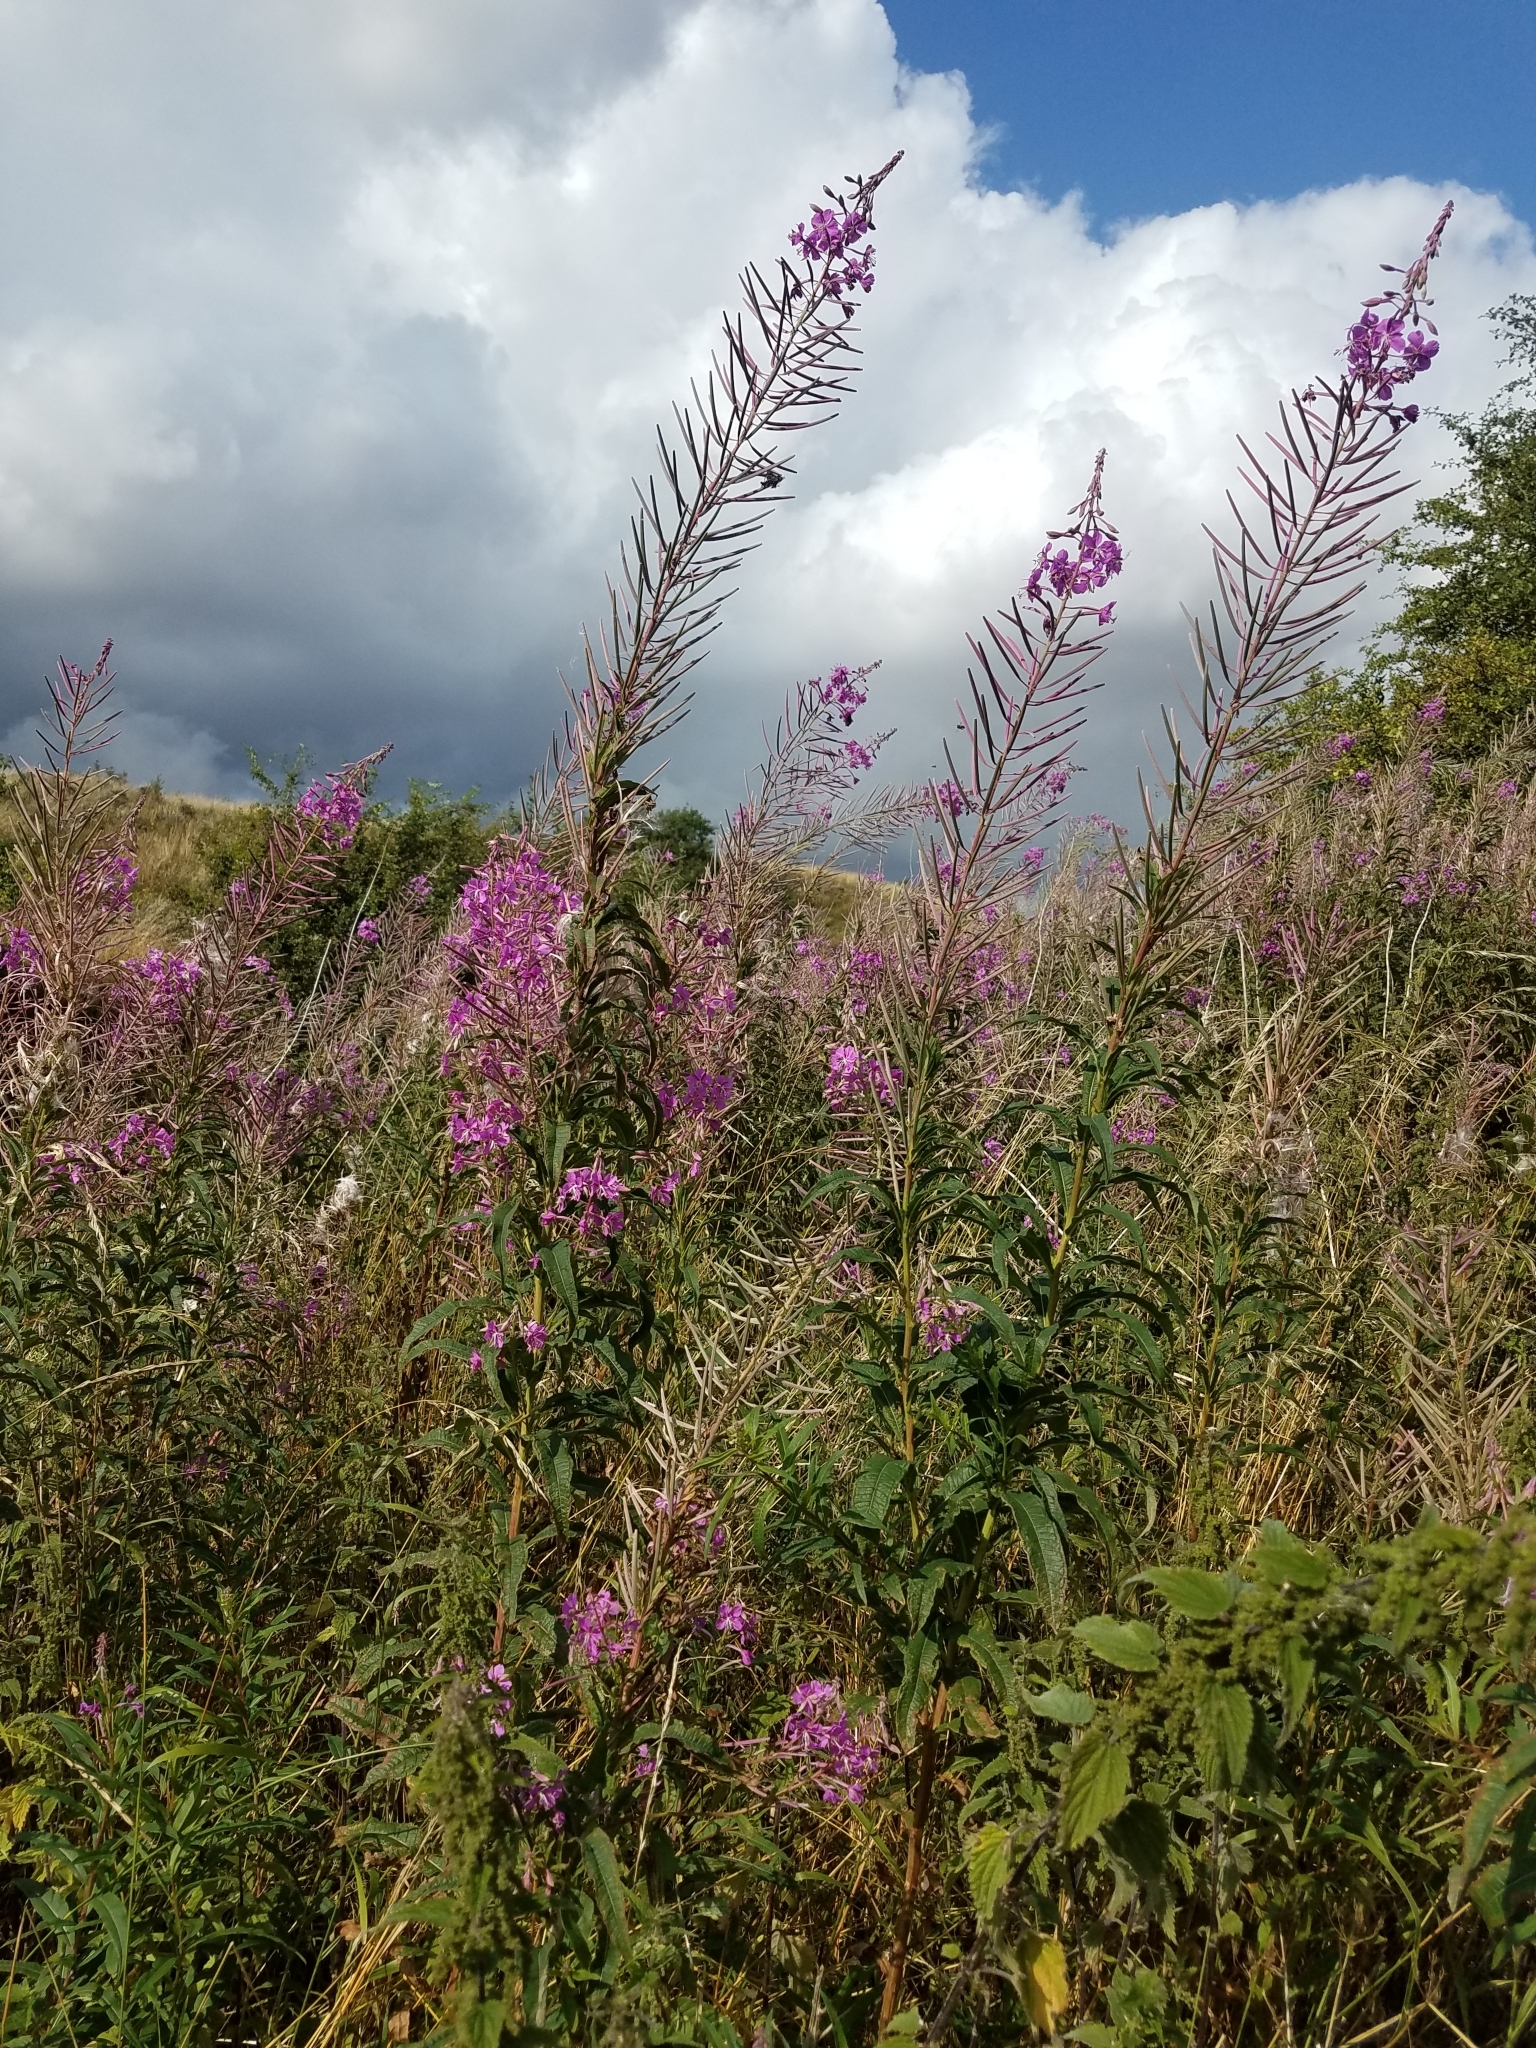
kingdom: Plantae
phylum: Tracheophyta
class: Magnoliopsida
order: Myrtales
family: Onagraceae
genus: Chamaenerion
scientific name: Chamaenerion angustifolium
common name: Fireweed
